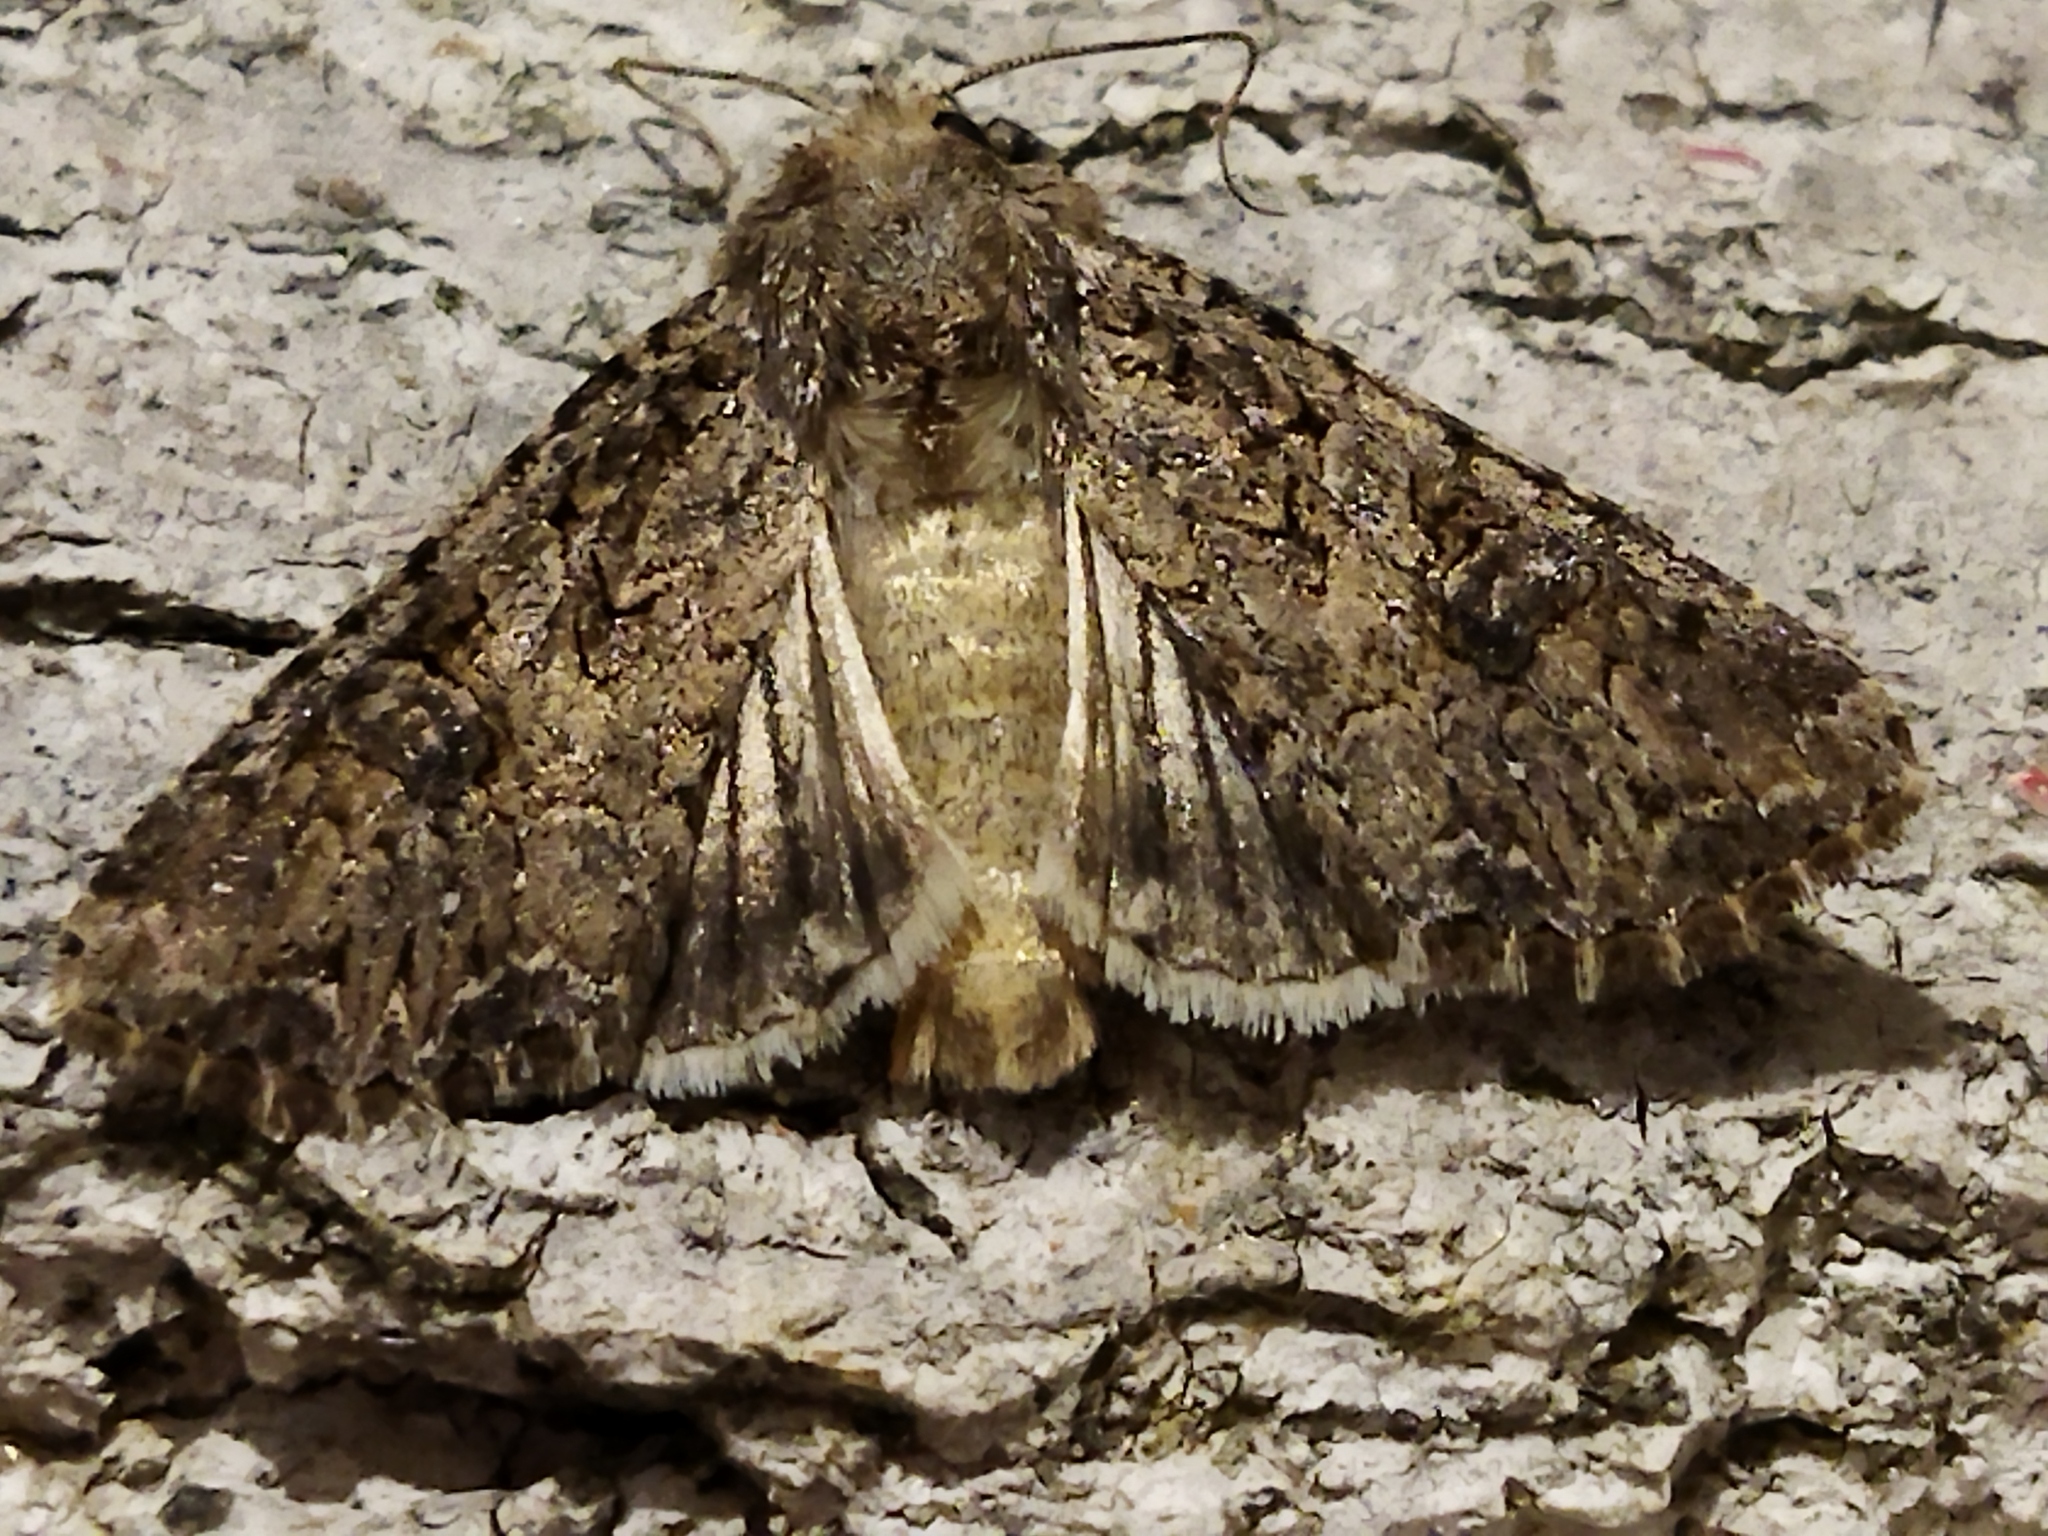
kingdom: Animalia
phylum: Arthropoda
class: Insecta
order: Lepidoptera
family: Noctuidae
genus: Anarta
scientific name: Anarta trifolii
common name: Clover cutworm moth
